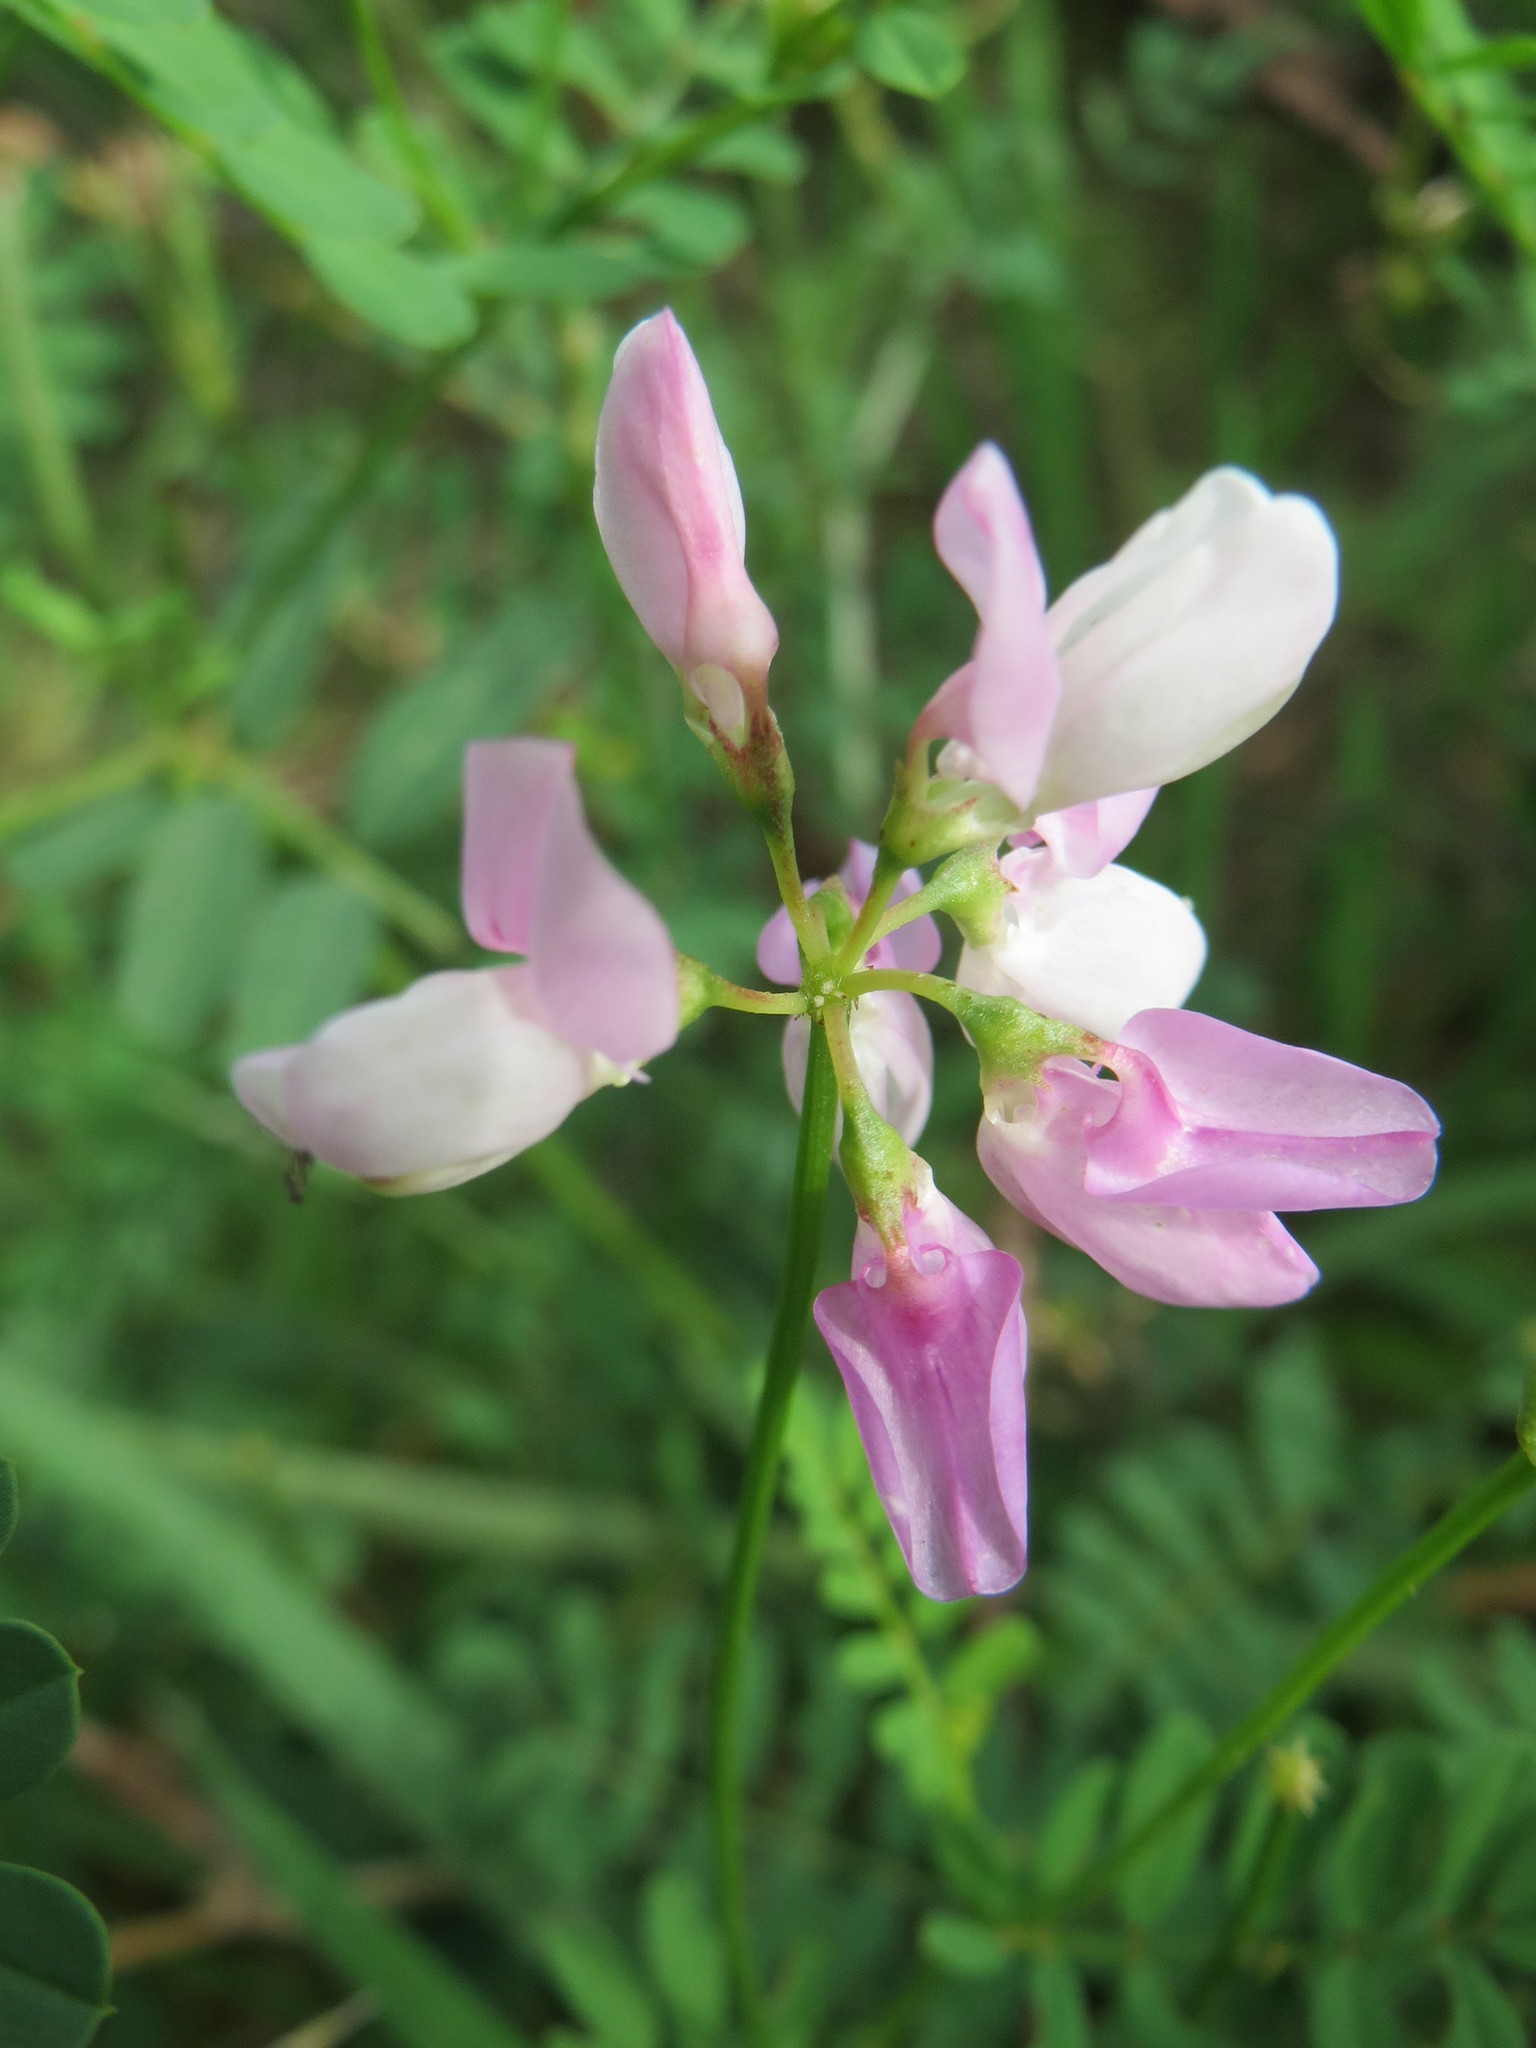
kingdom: Plantae
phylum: Tracheophyta
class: Magnoliopsida
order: Fabales
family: Fabaceae
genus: Coronilla
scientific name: Coronilla varia
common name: Crownvetch
